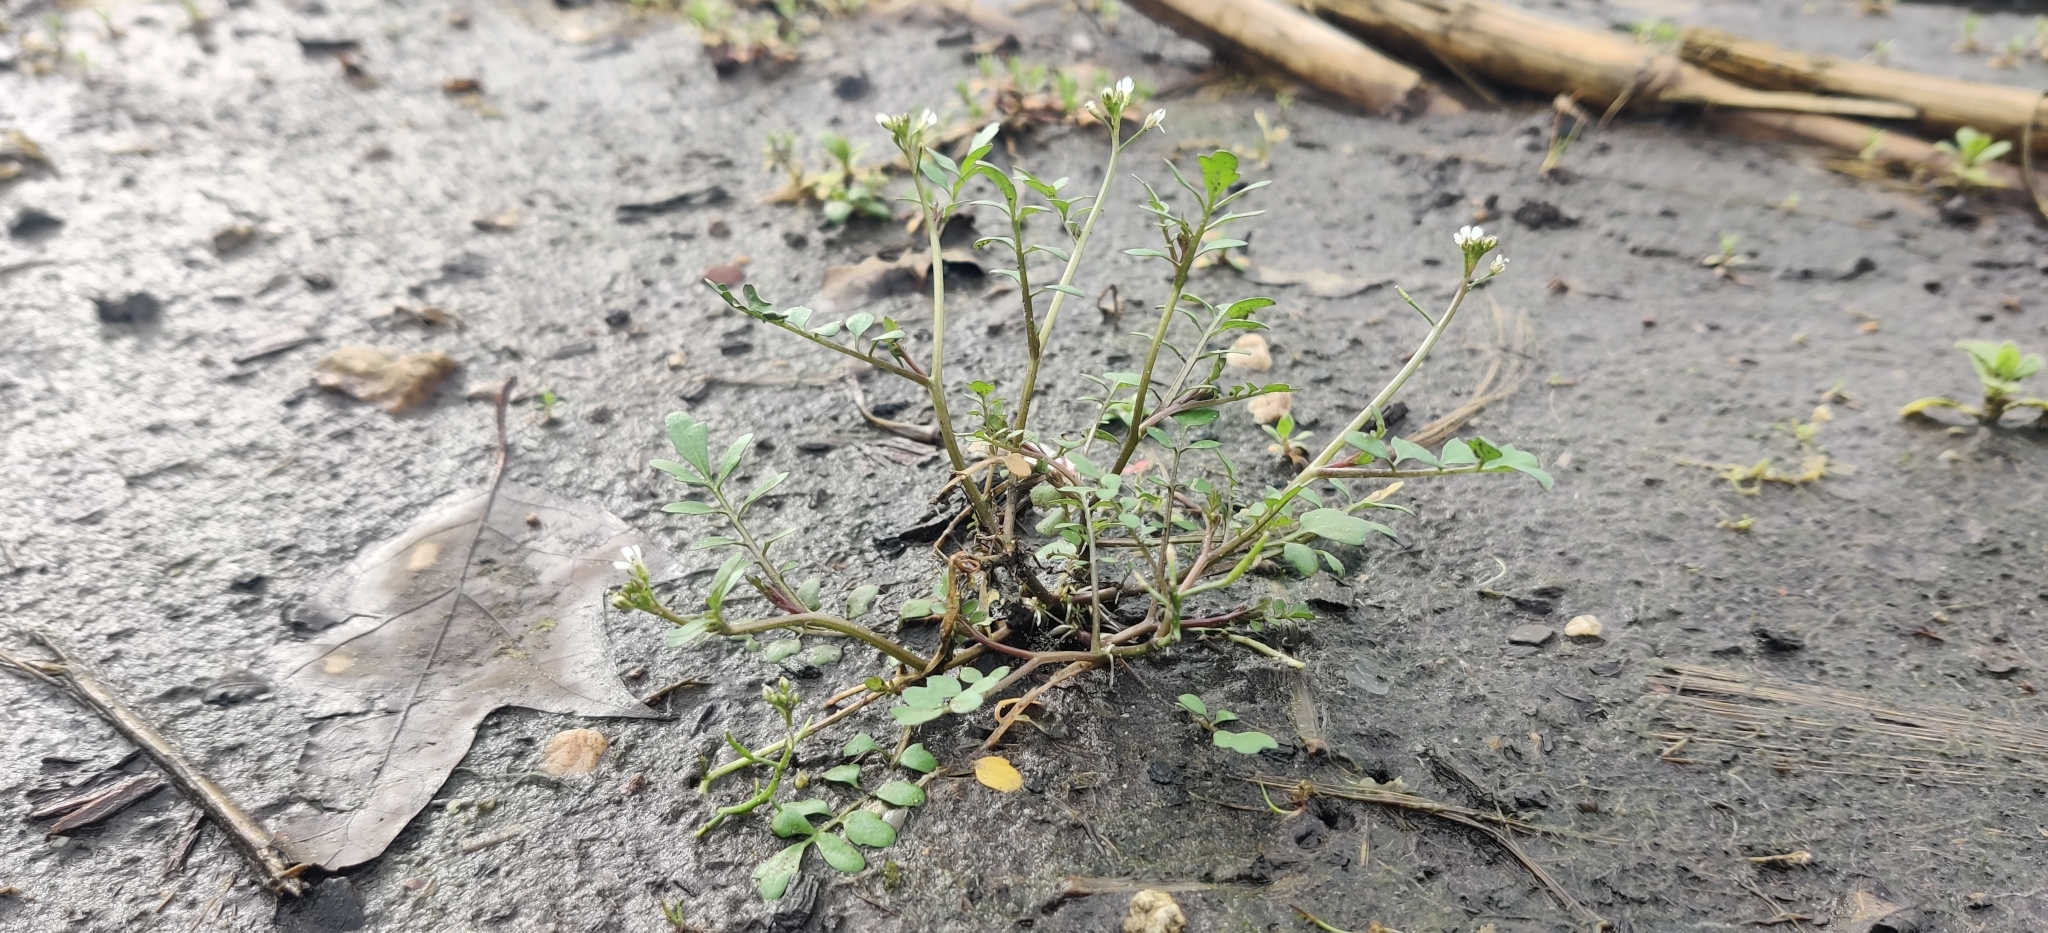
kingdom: Plantae
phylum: Tracheophyta
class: Magnoliopsida
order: Brassicales
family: Brassicaceae
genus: Cardamine
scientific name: Cardamine occulta
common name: Asian wavy bittercress
